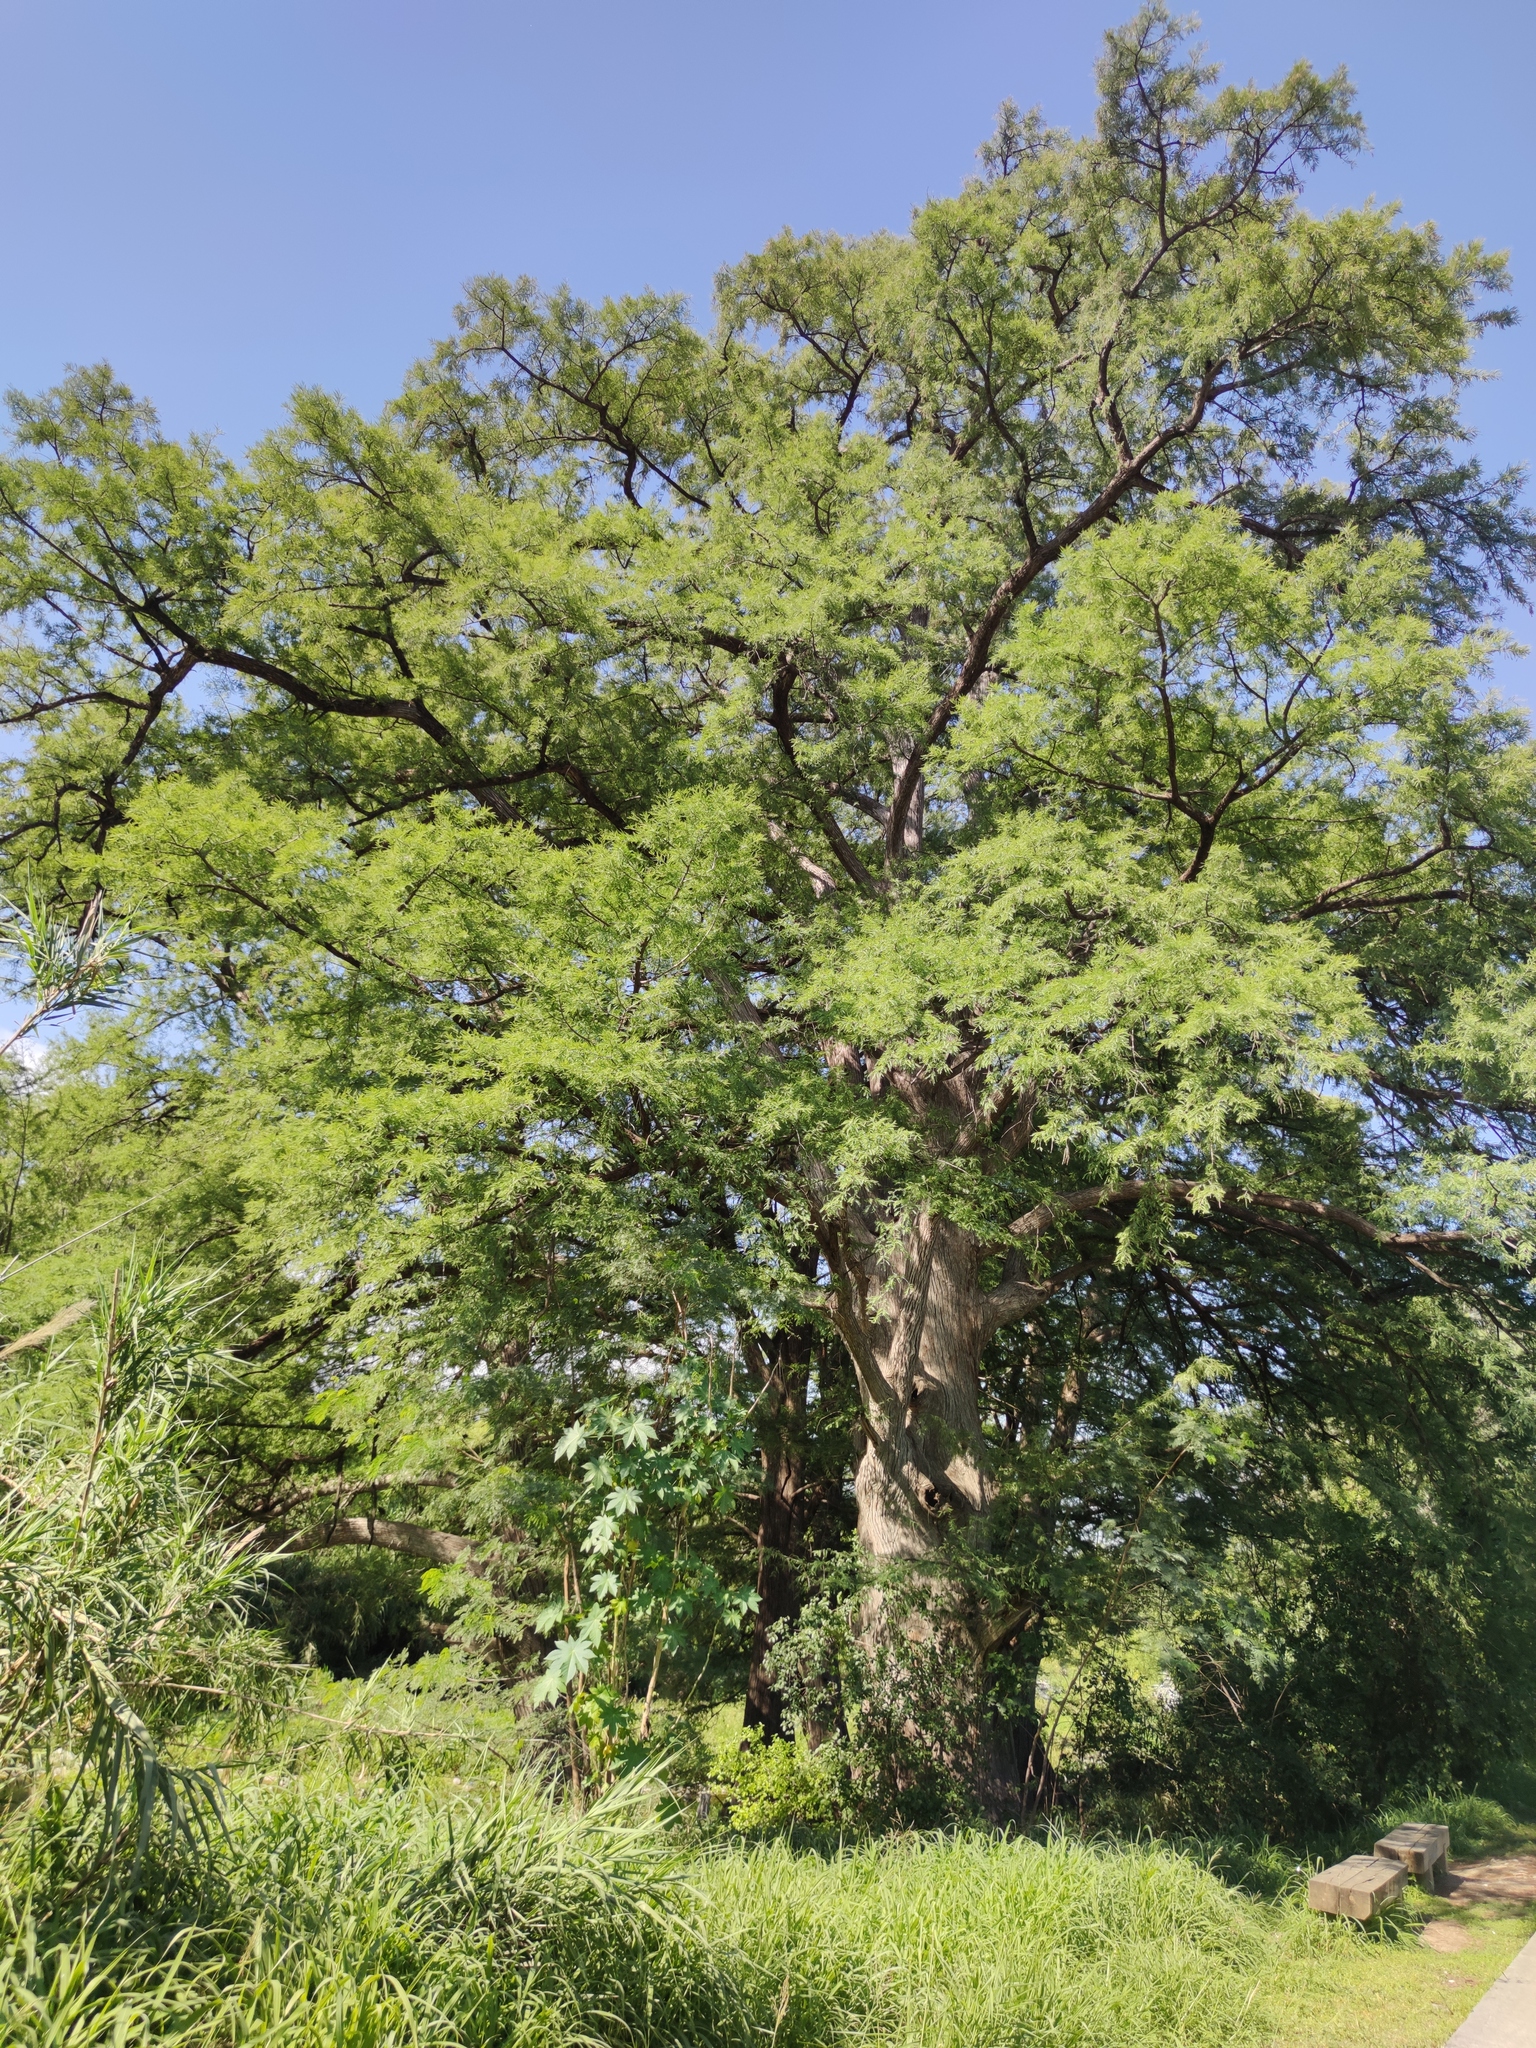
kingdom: Plantae
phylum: Tracheophyta
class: Pinopsida
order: Pinales
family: Cupressaceae
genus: Taxodium
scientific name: Taxodium mucronatum
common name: Montezume bald cypress
